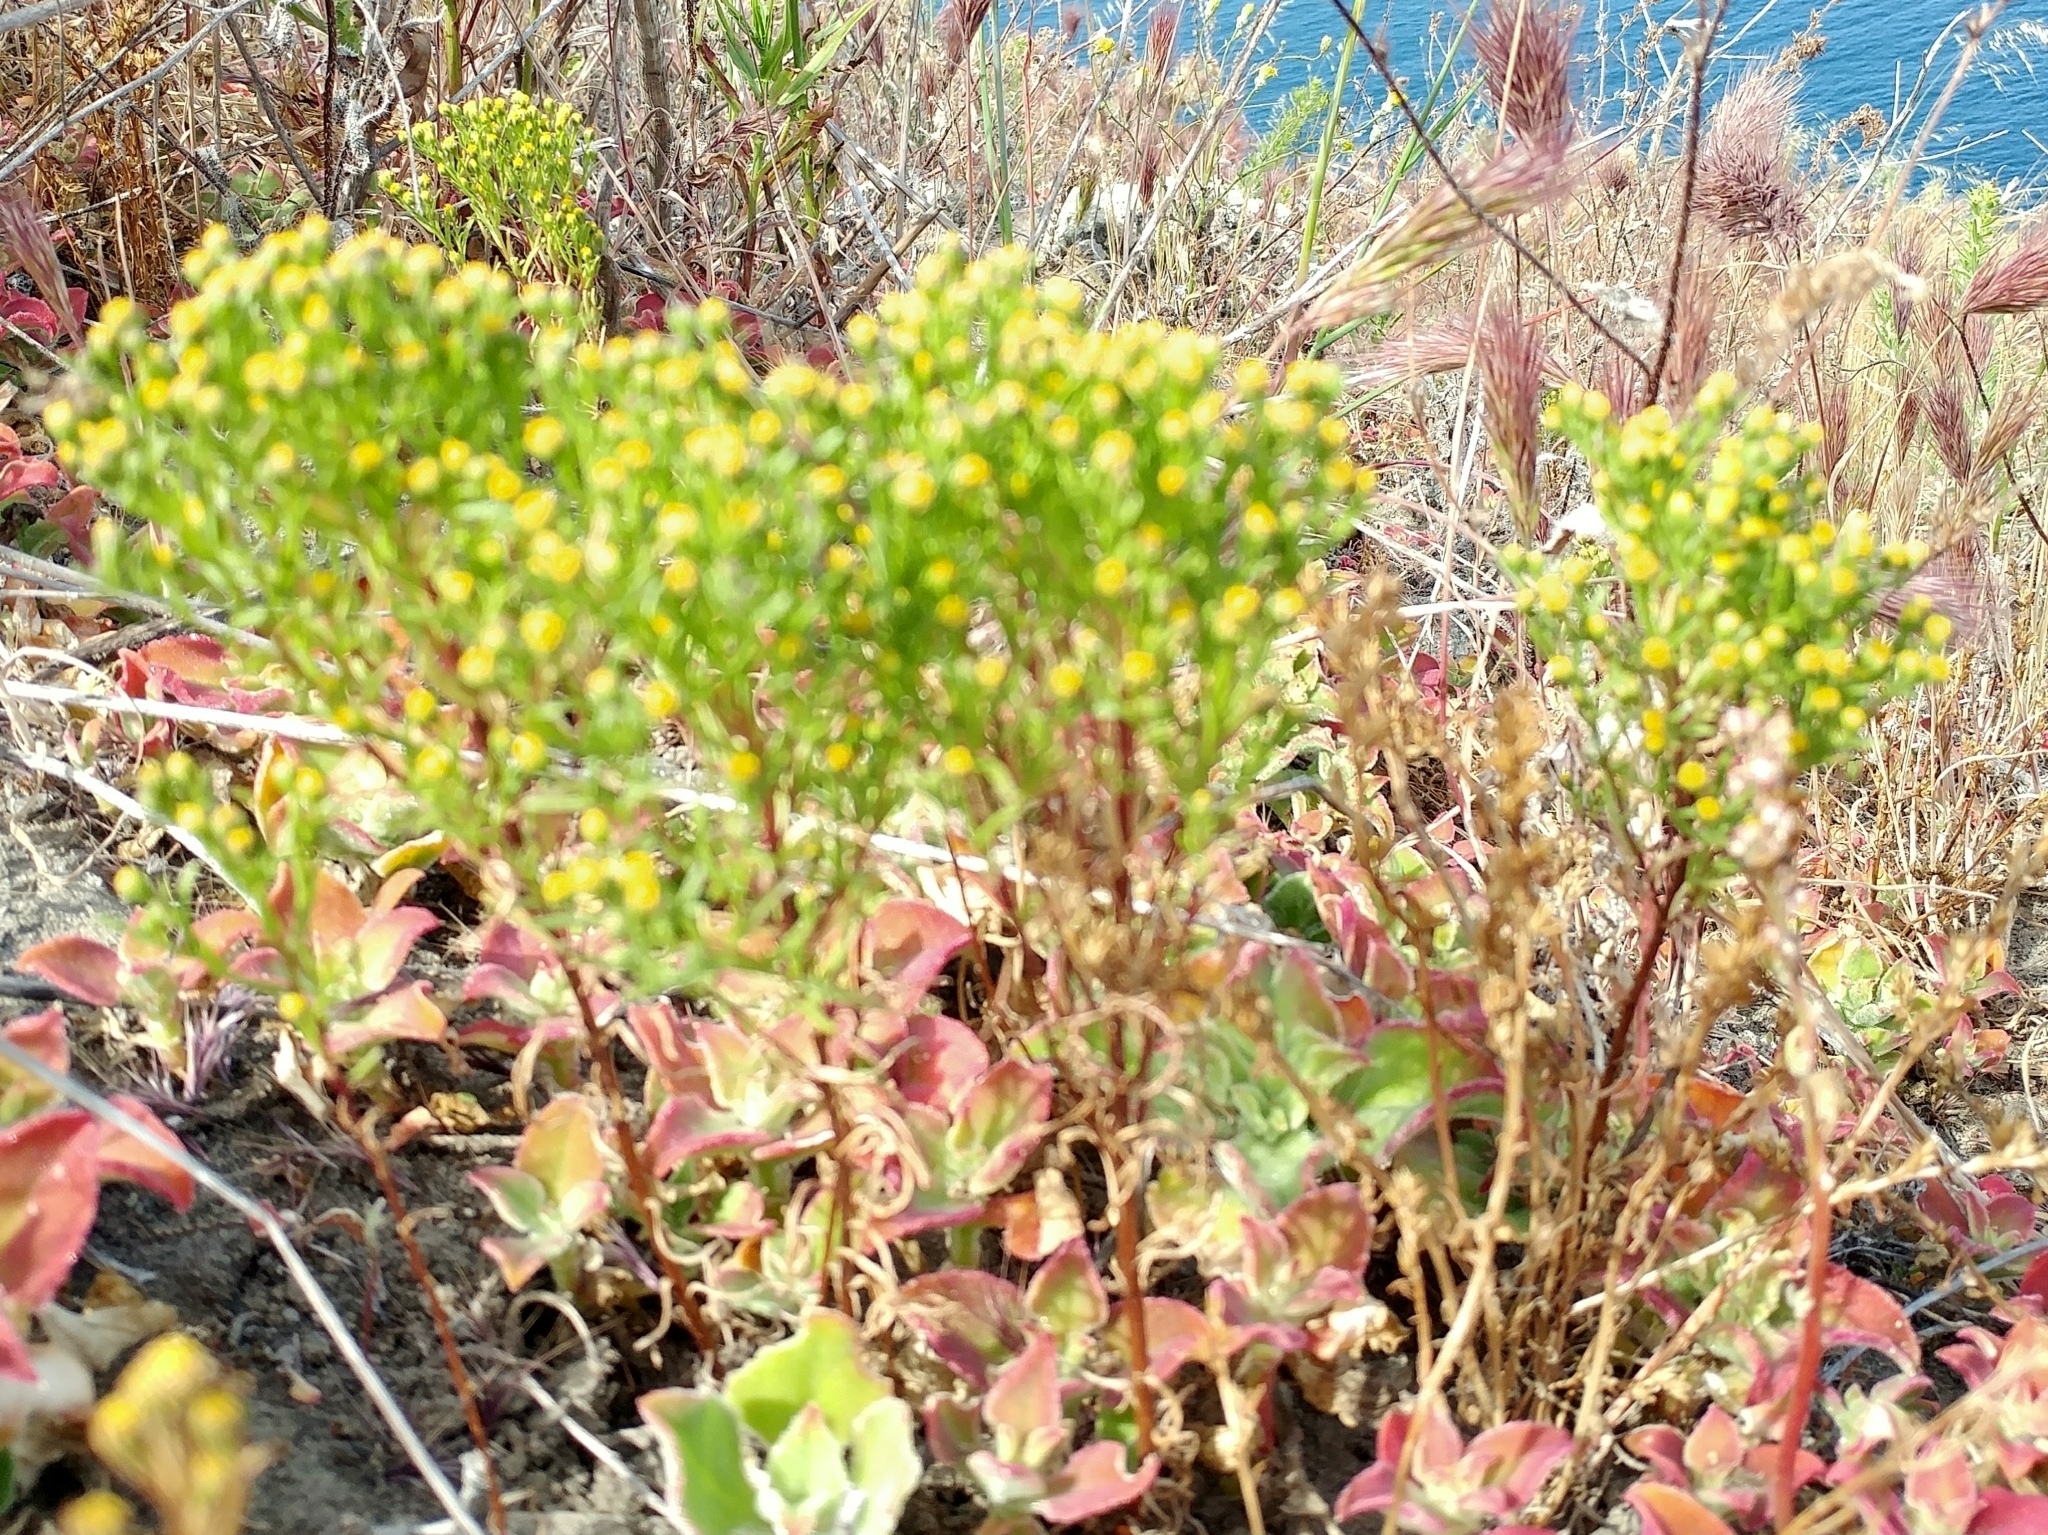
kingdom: Plantae
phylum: Tracheophyta
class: Magnoliopsida
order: Asterales
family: Asteraceae
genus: Amblyopappus
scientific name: Amblyopappus pusillus
